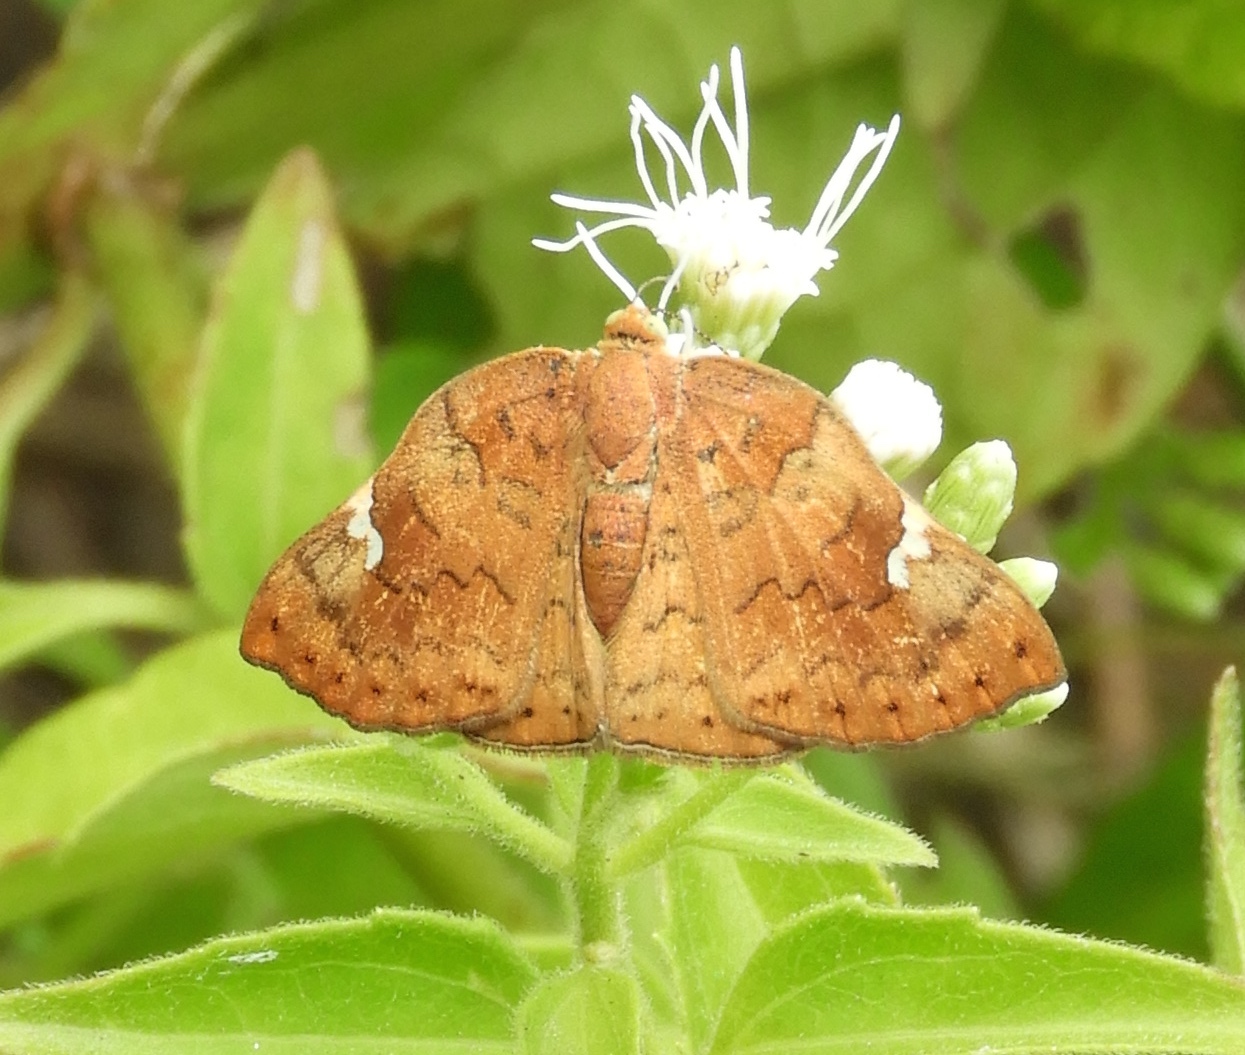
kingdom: Animalia
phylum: Arthropoda
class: Insecta
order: Lepidoptera
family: Riodinidae
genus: Curvie
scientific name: Curvie emesia
